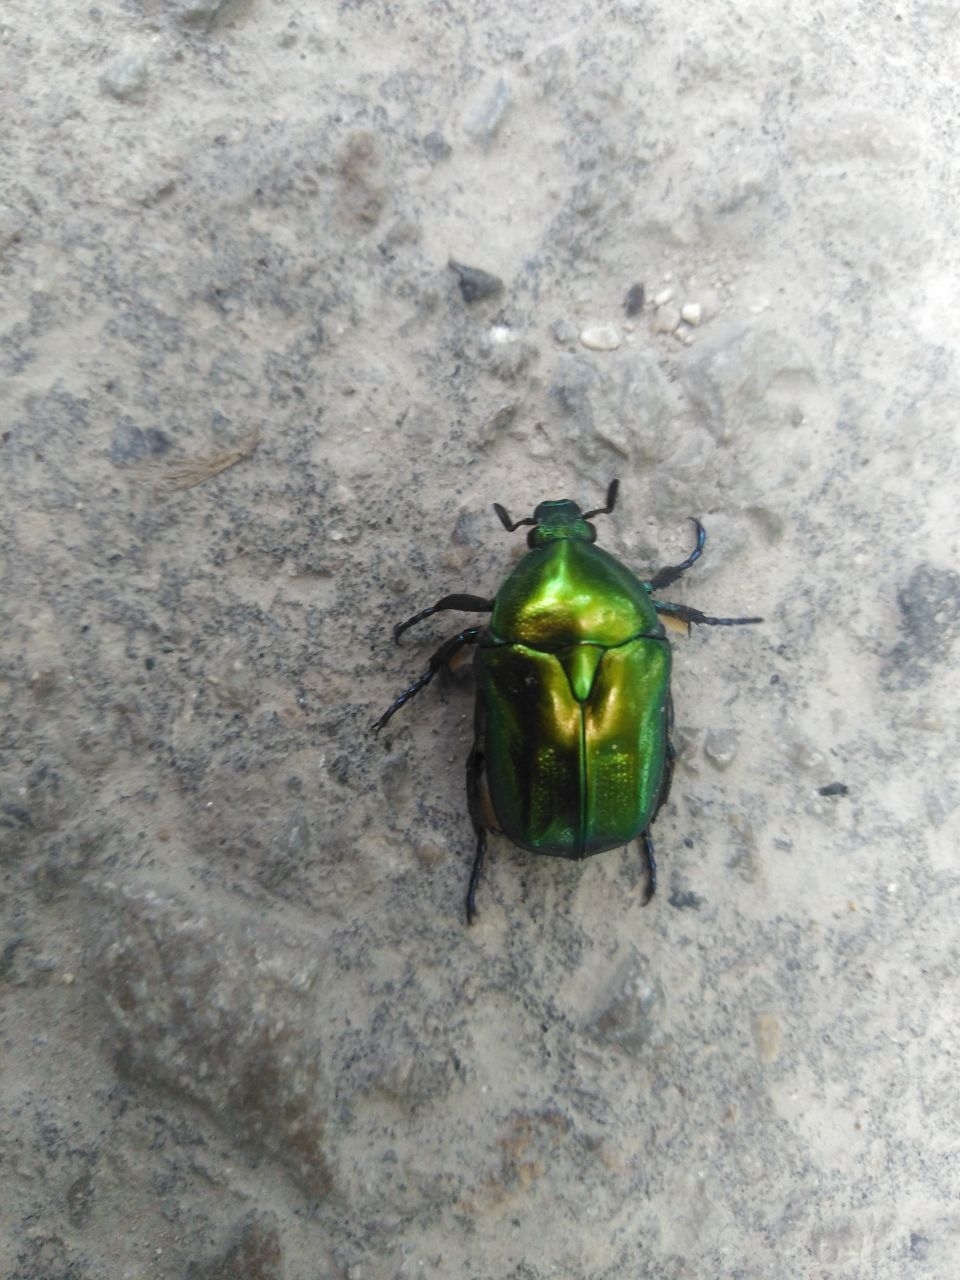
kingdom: Animalia
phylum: Arthropoda
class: Insecta
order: Coleoptera
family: Scarabaeidae
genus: Protaetia
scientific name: Protaetia affinis
